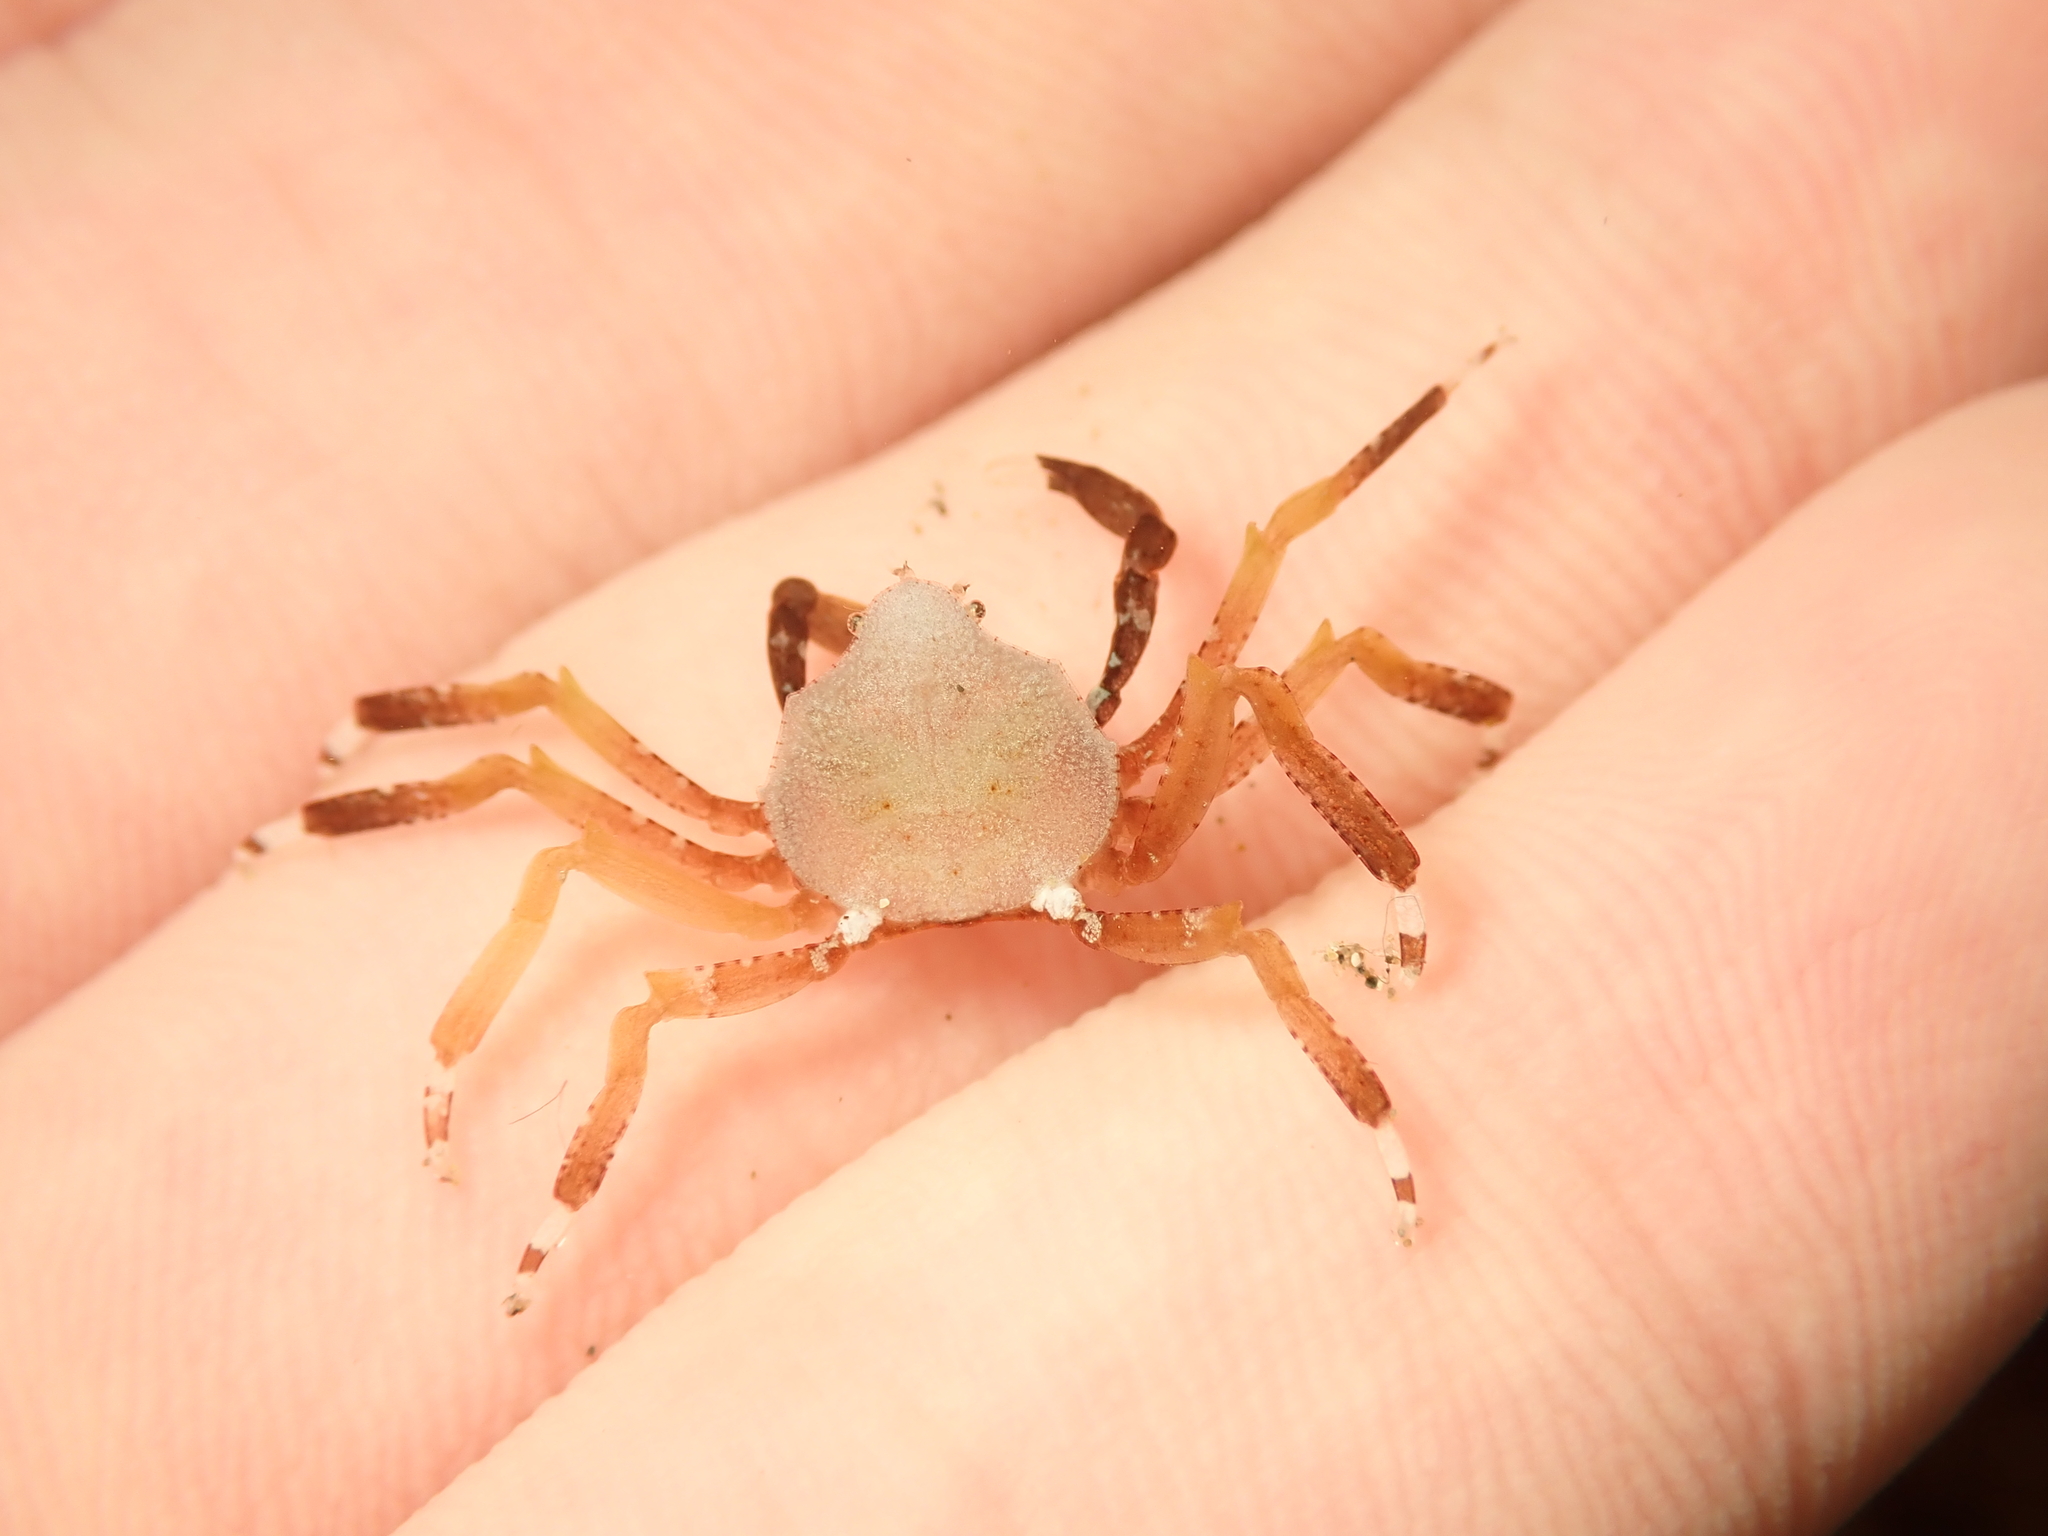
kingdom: Animalia
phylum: Arthropoda
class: Malacostraca
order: Decapoda
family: Hymenosomatidae
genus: Elamena
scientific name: Elamena producta
